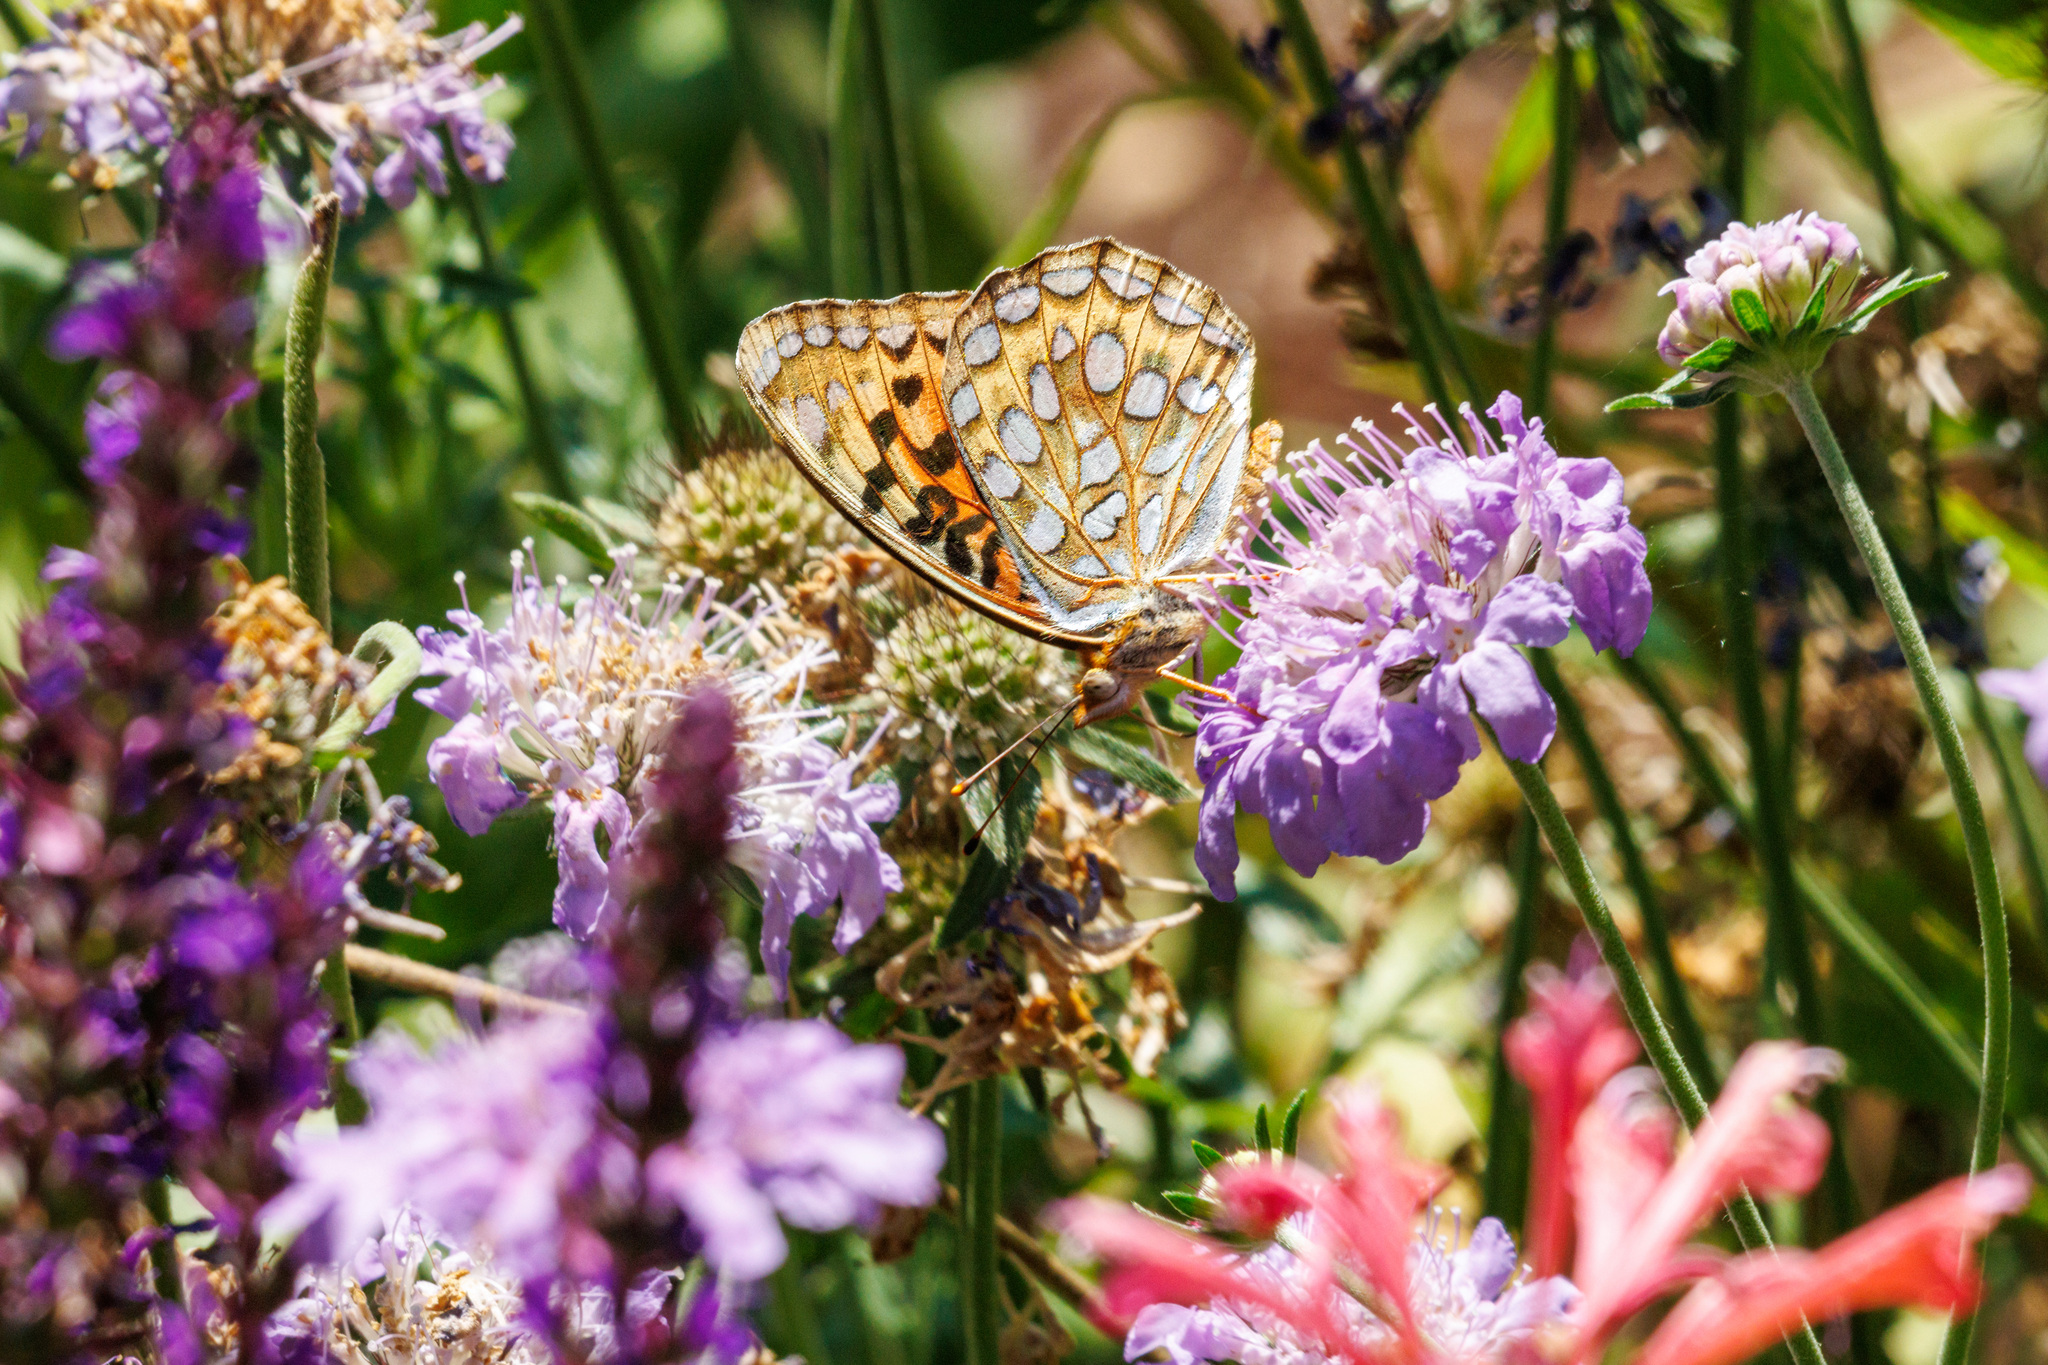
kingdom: Animalia
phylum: Arthropoda
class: Insecta
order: Lepidoptera
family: Nymphalidae
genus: Argynnis
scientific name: Argynnis coronis
